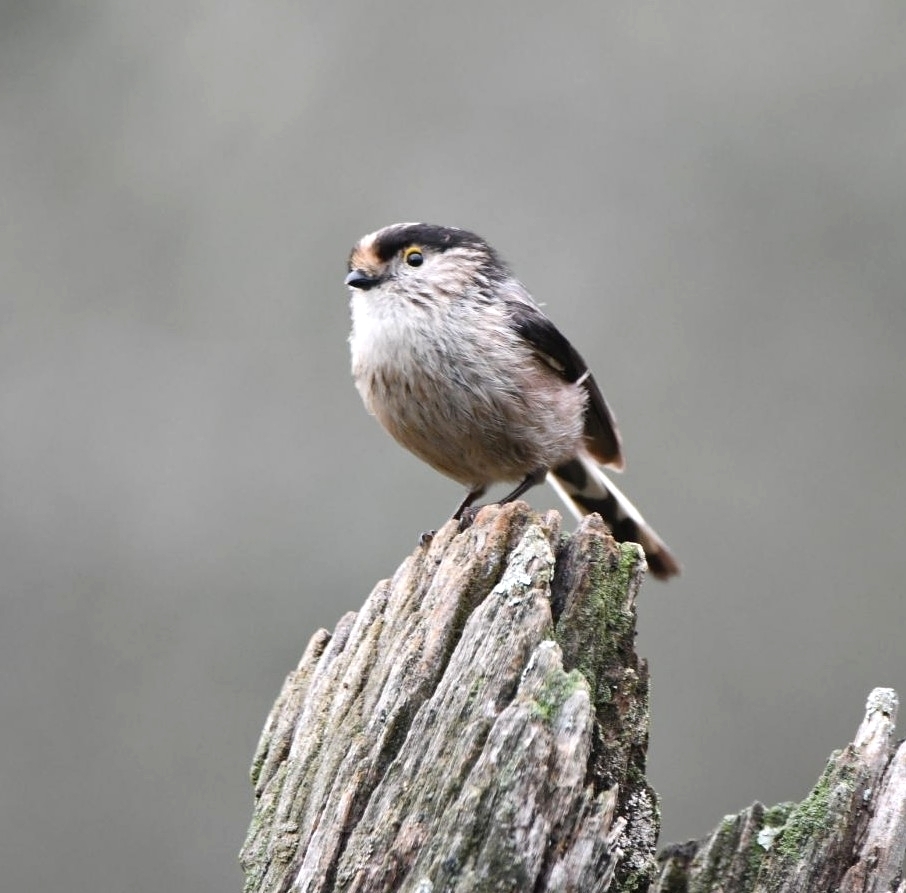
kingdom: Animalia
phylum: Chordata
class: Aves
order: Passeriformes
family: Aegithalidae
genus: Aegithalos
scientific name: Aegithalos caudatus
